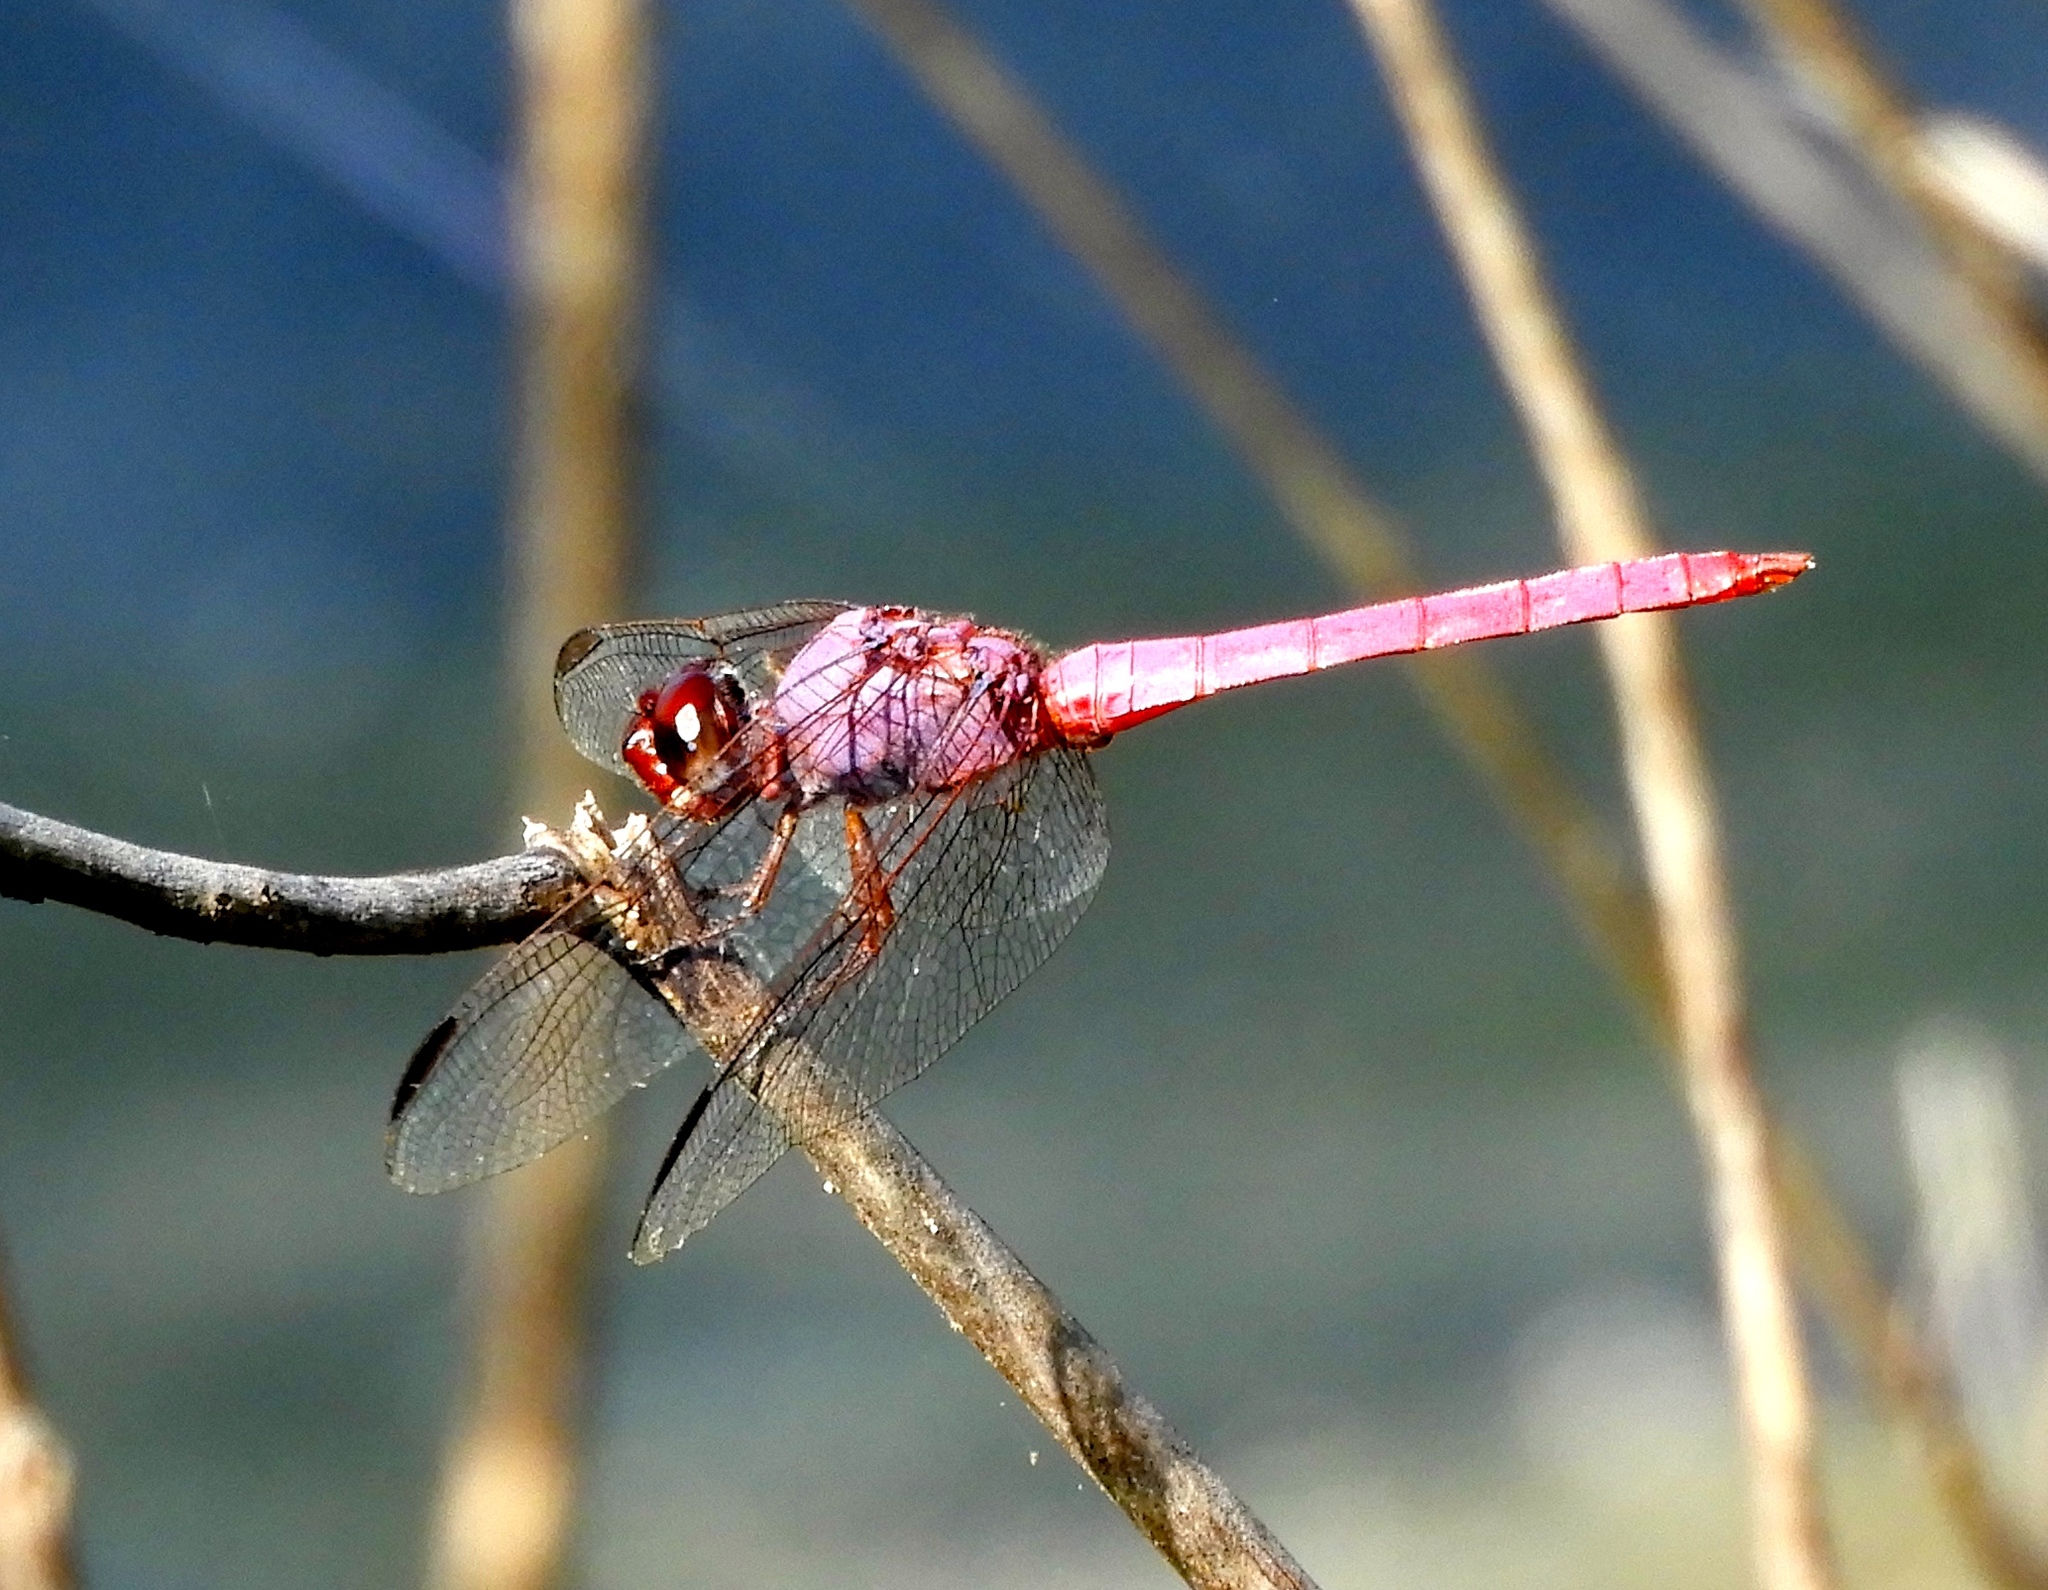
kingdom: Animalia
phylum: Arthropoda
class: Insecta
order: Odonata
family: Libellulidae
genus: Orthemis
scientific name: Orthemis ferruginea
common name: Roseate skimmer
